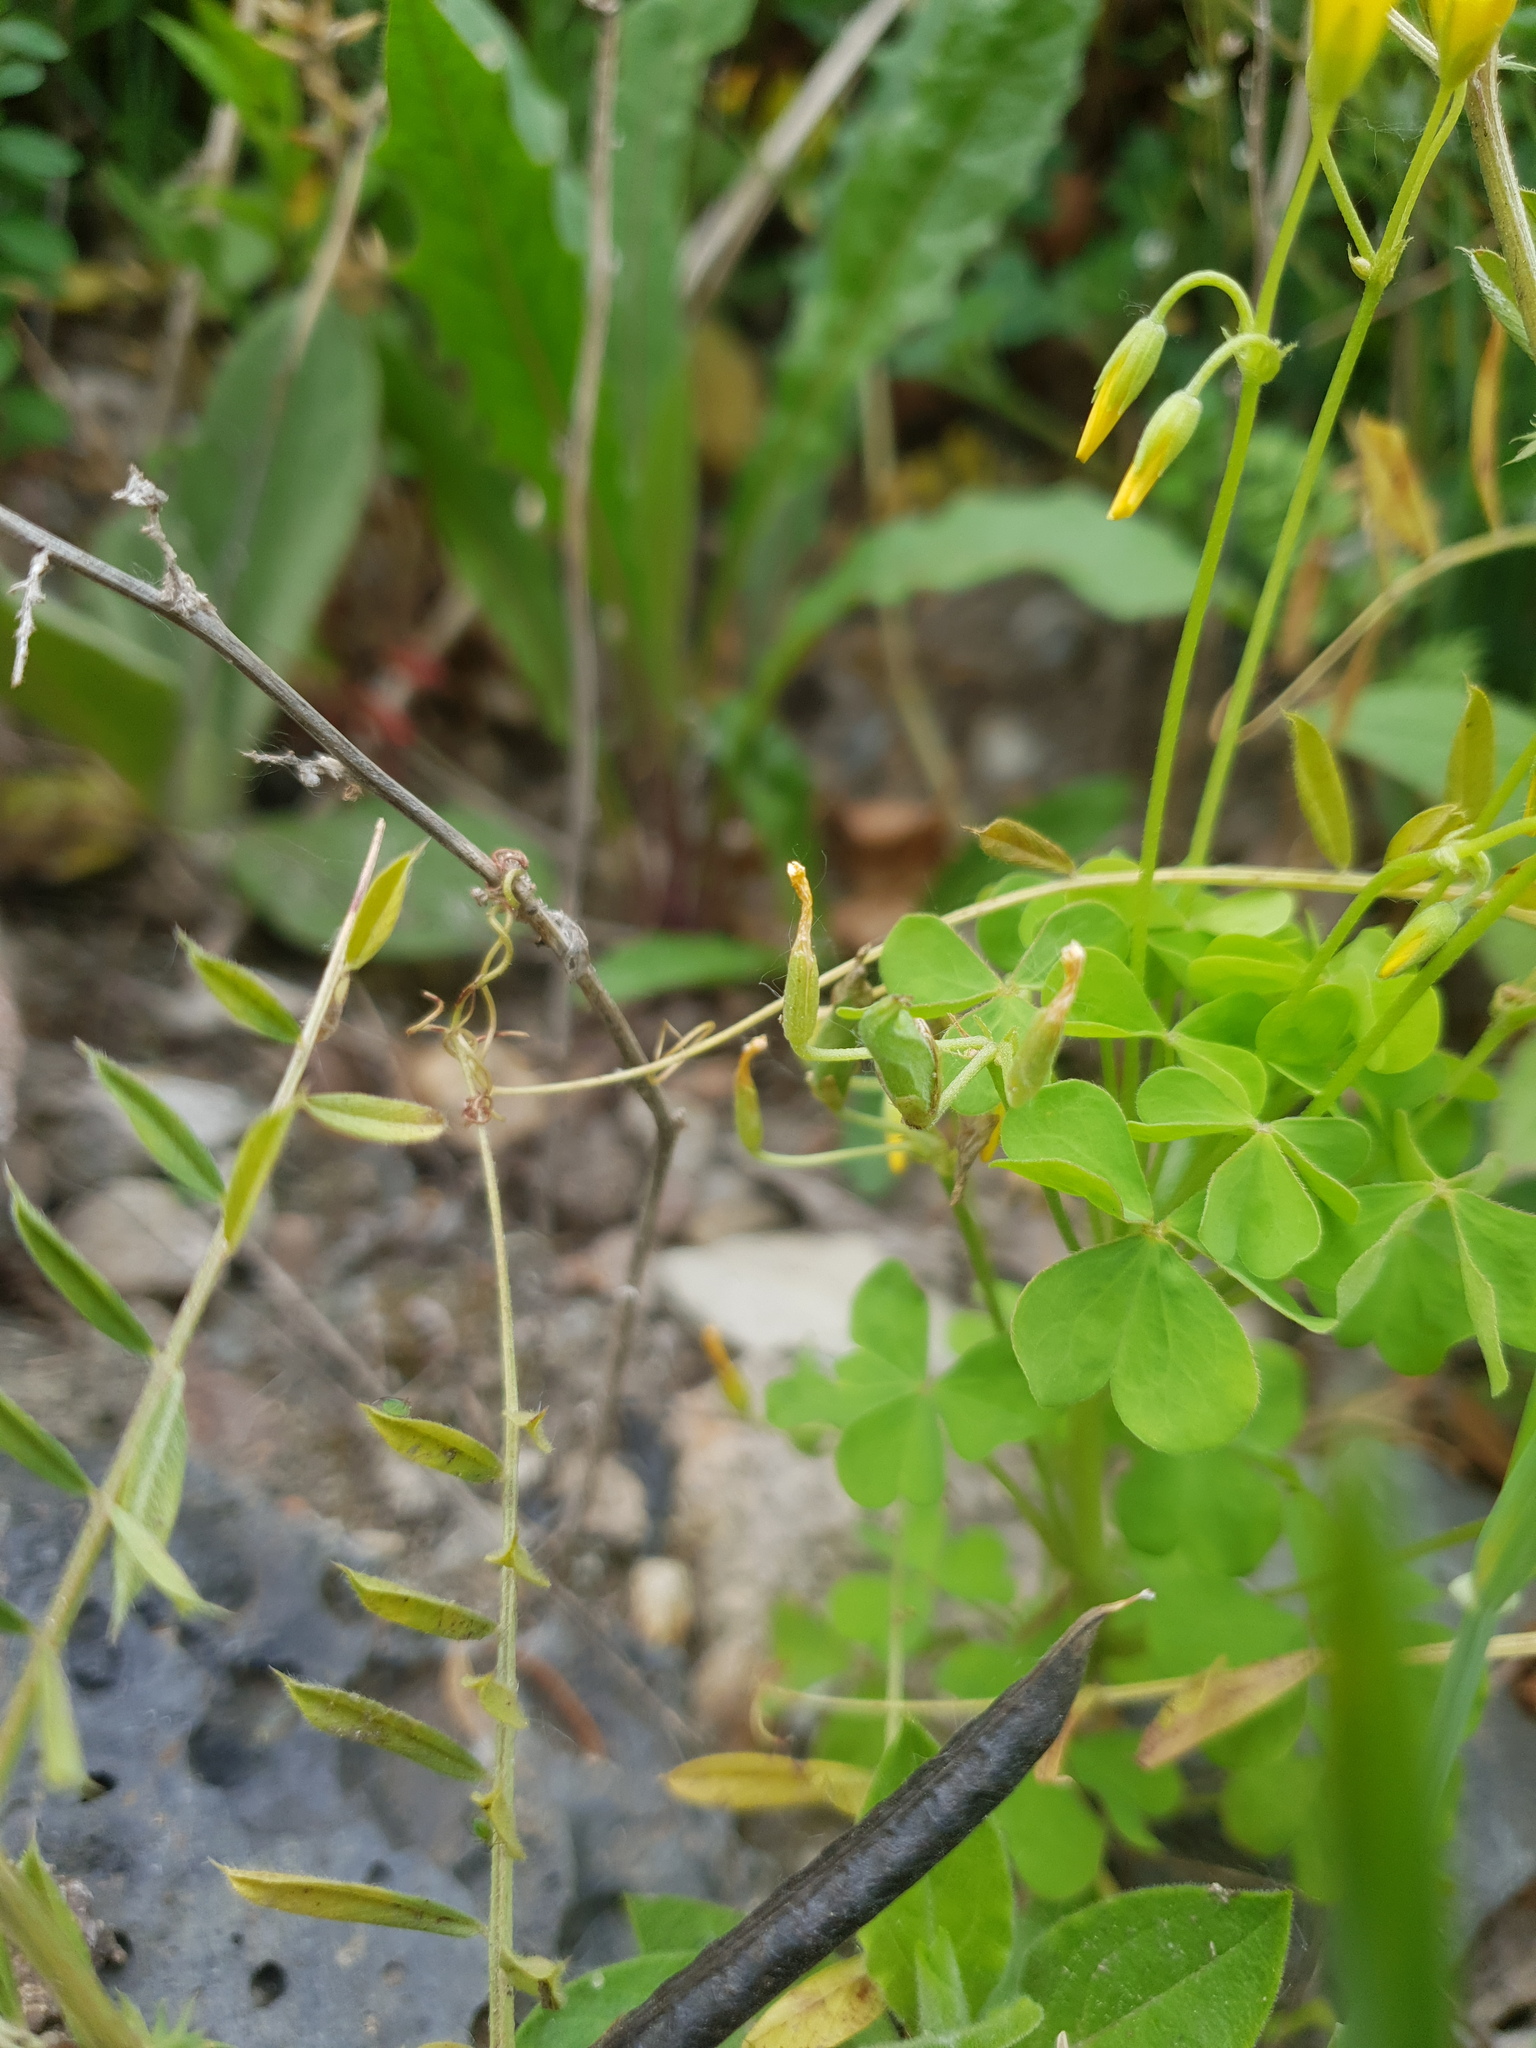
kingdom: Plantae
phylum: Tracheophyta
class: Magnoliopsida
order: Oxalidales
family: Oxalidaceae
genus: Oxalis
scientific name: Oxalis stricta
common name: Upright yellow-sorrel
